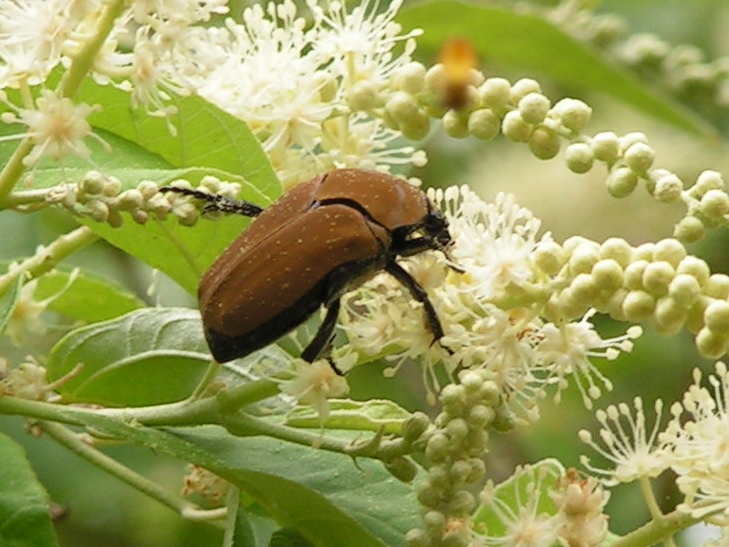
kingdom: Animalia
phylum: Arthropoda
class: Insecta
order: Coleoptera
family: Scarabaeidae
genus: Hologymnetis
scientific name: Hologymnetis cinerea
